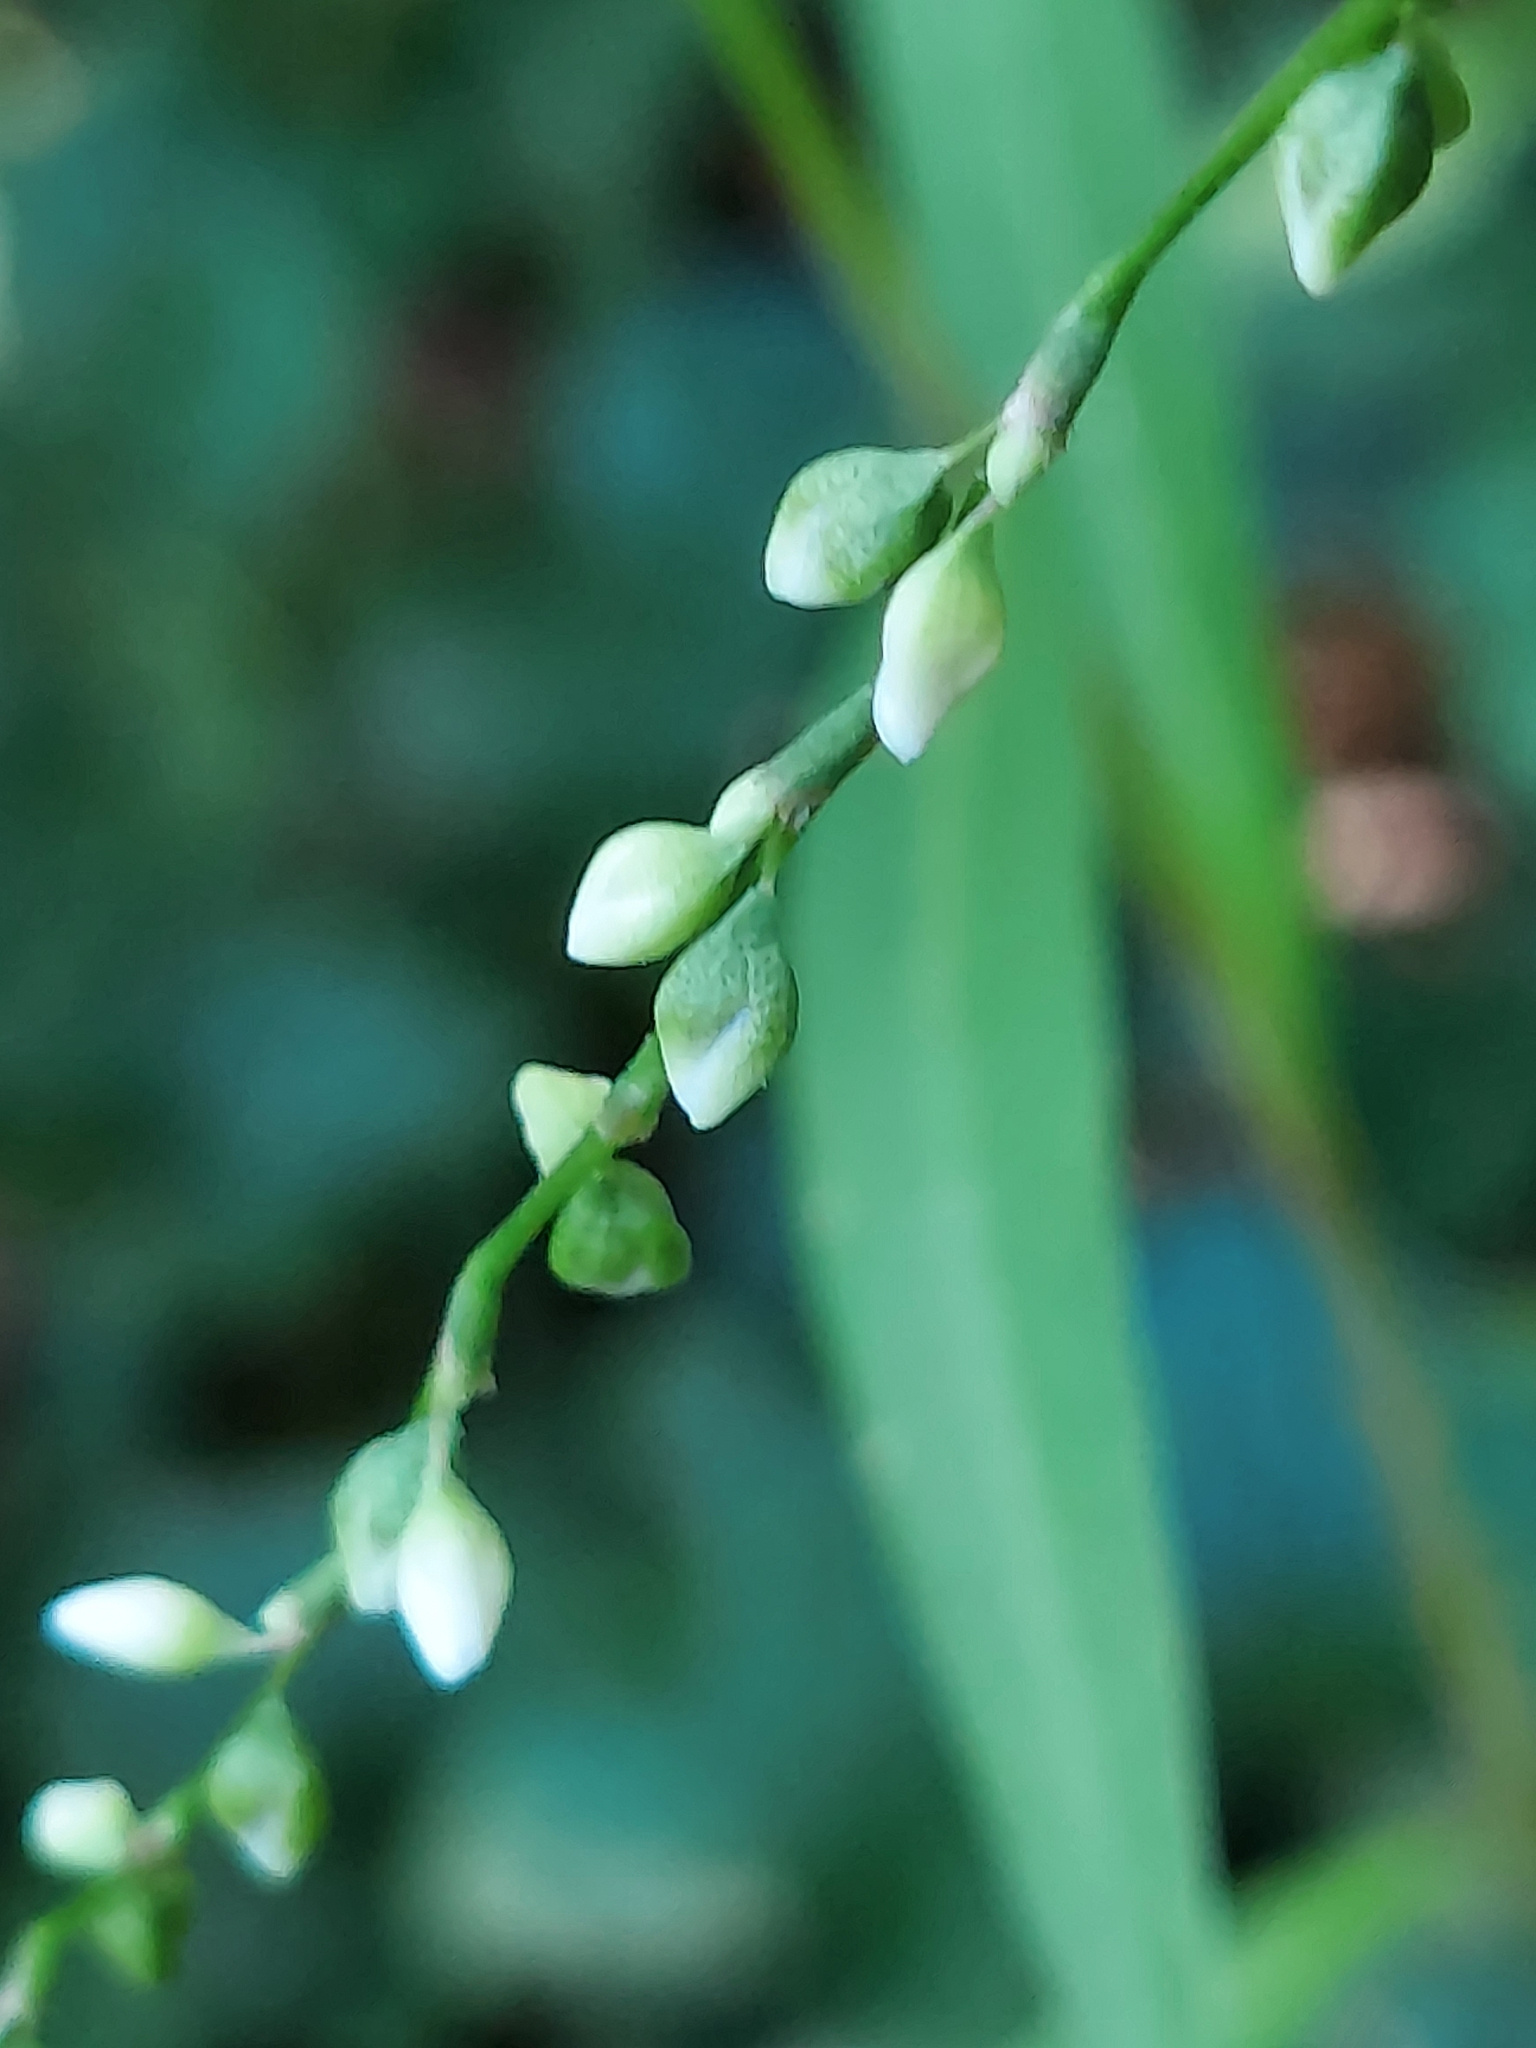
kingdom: Plantae
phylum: Tracheophyta
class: Magnoliopsida
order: Caryophyllales
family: Polygonaceae
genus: Persicaria
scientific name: Persicaria punctata
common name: Dotted smartweed
